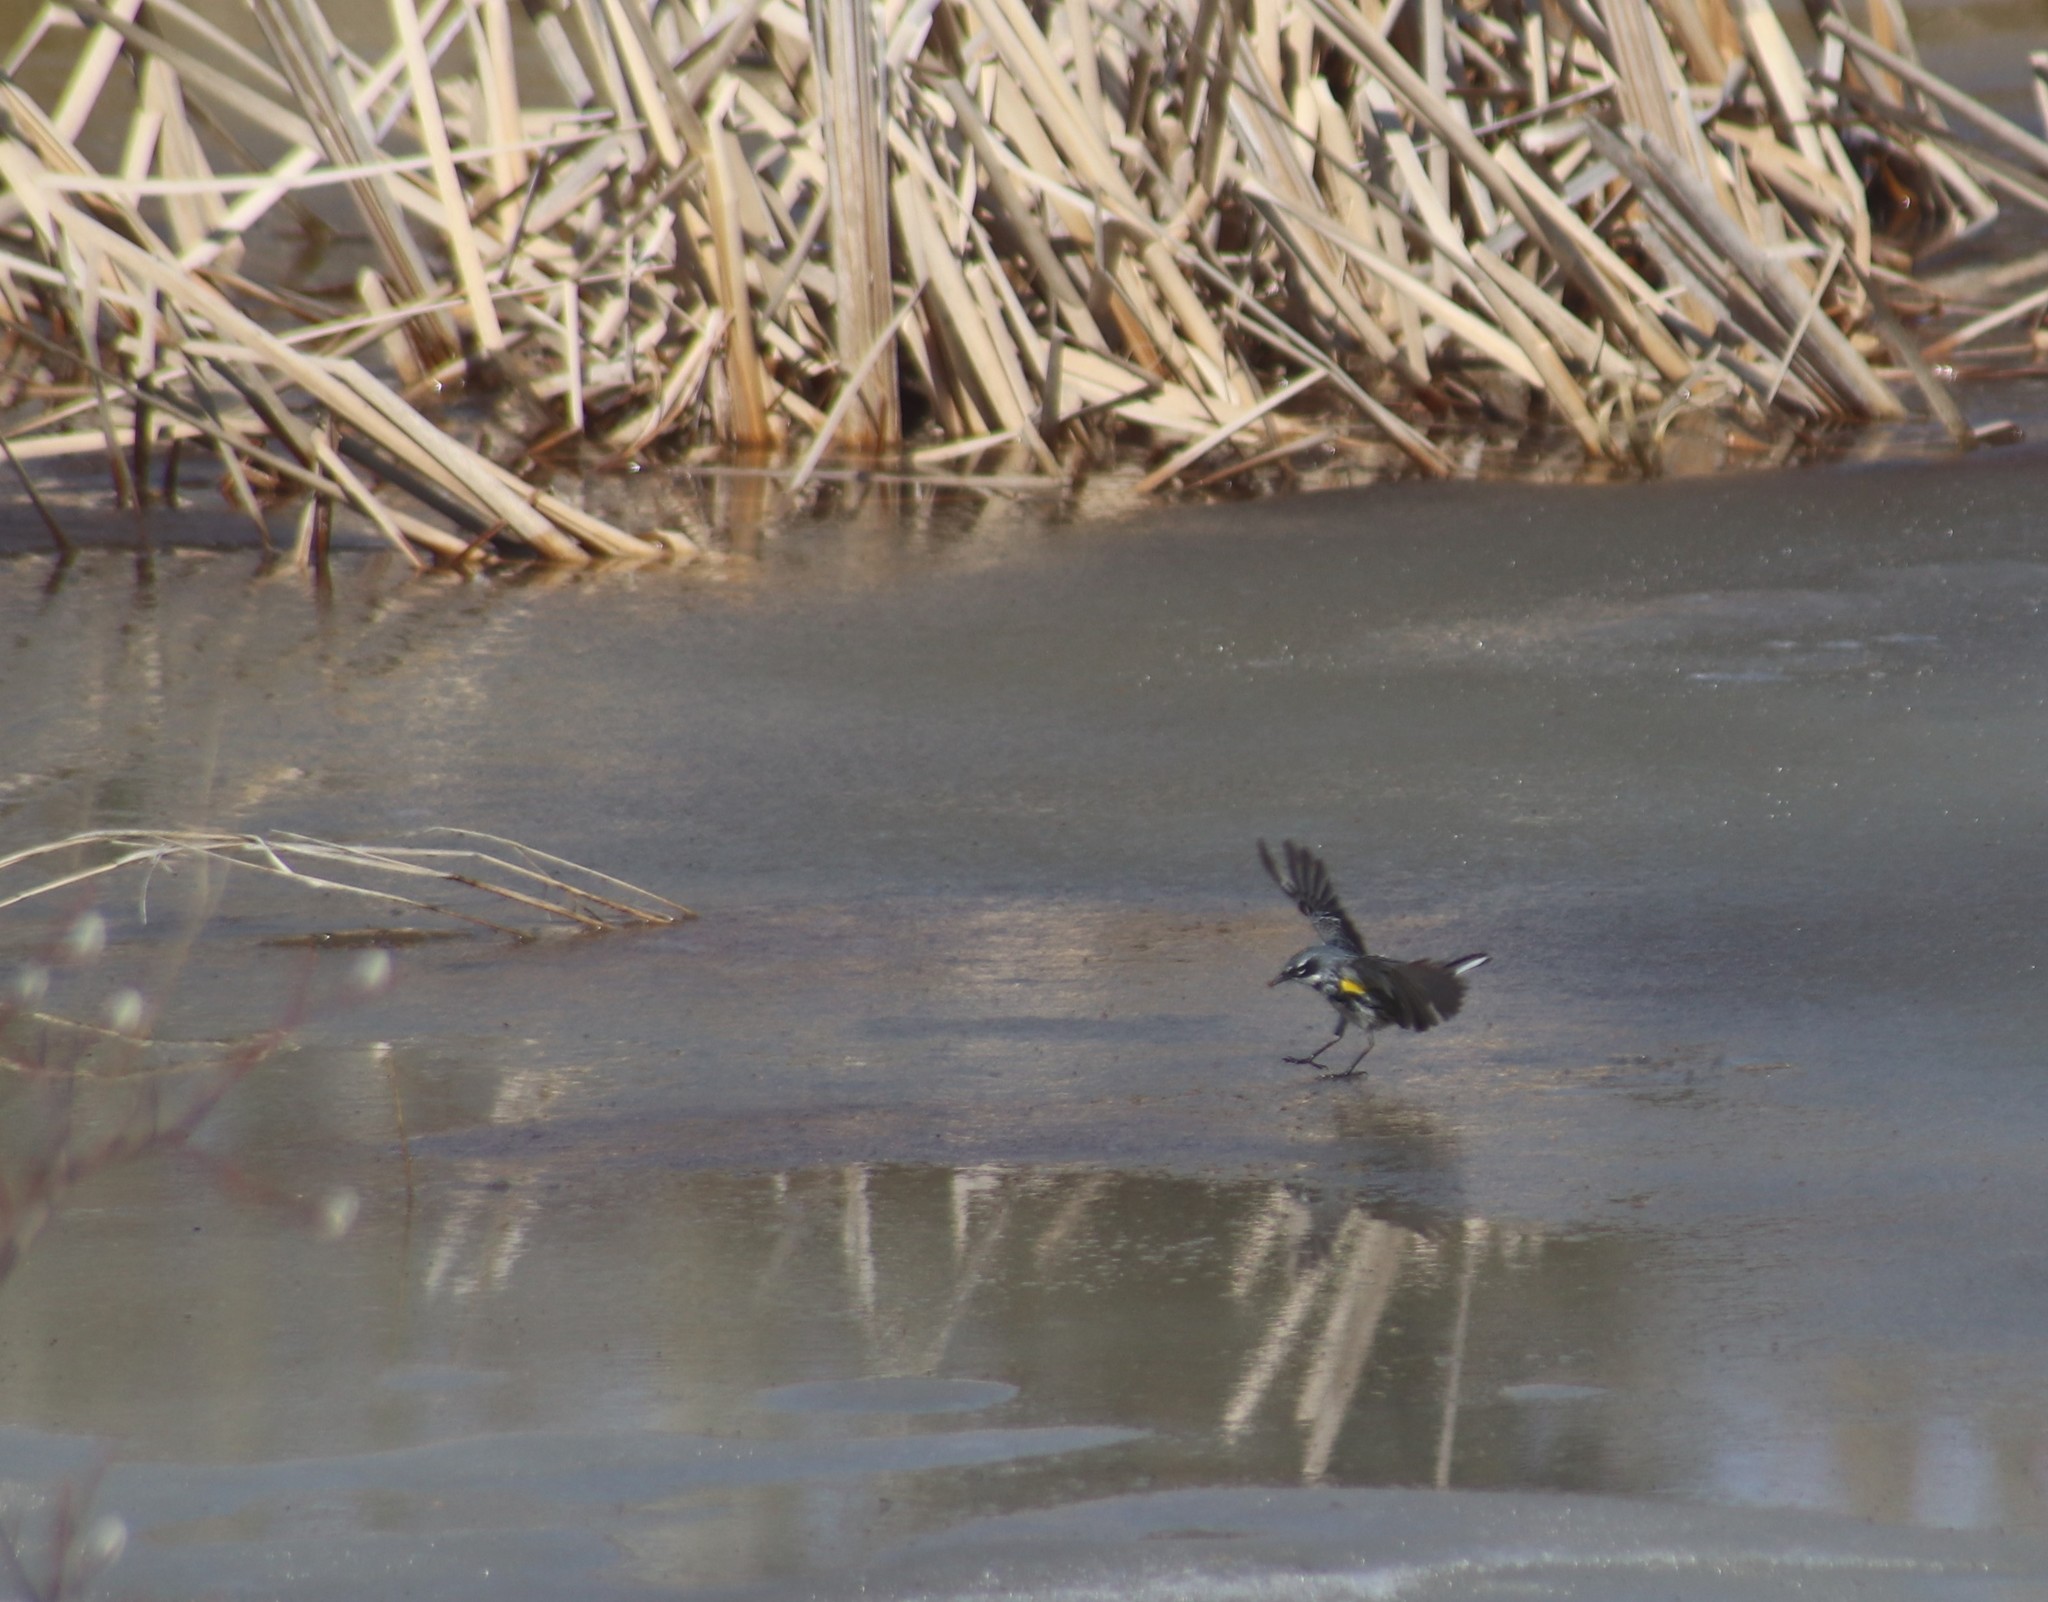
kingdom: Animalia
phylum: Chordata
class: Aves
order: Passeriformes
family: Parulidae
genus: Setophaga
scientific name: Setophaga coronata
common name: Myrtle warbler
